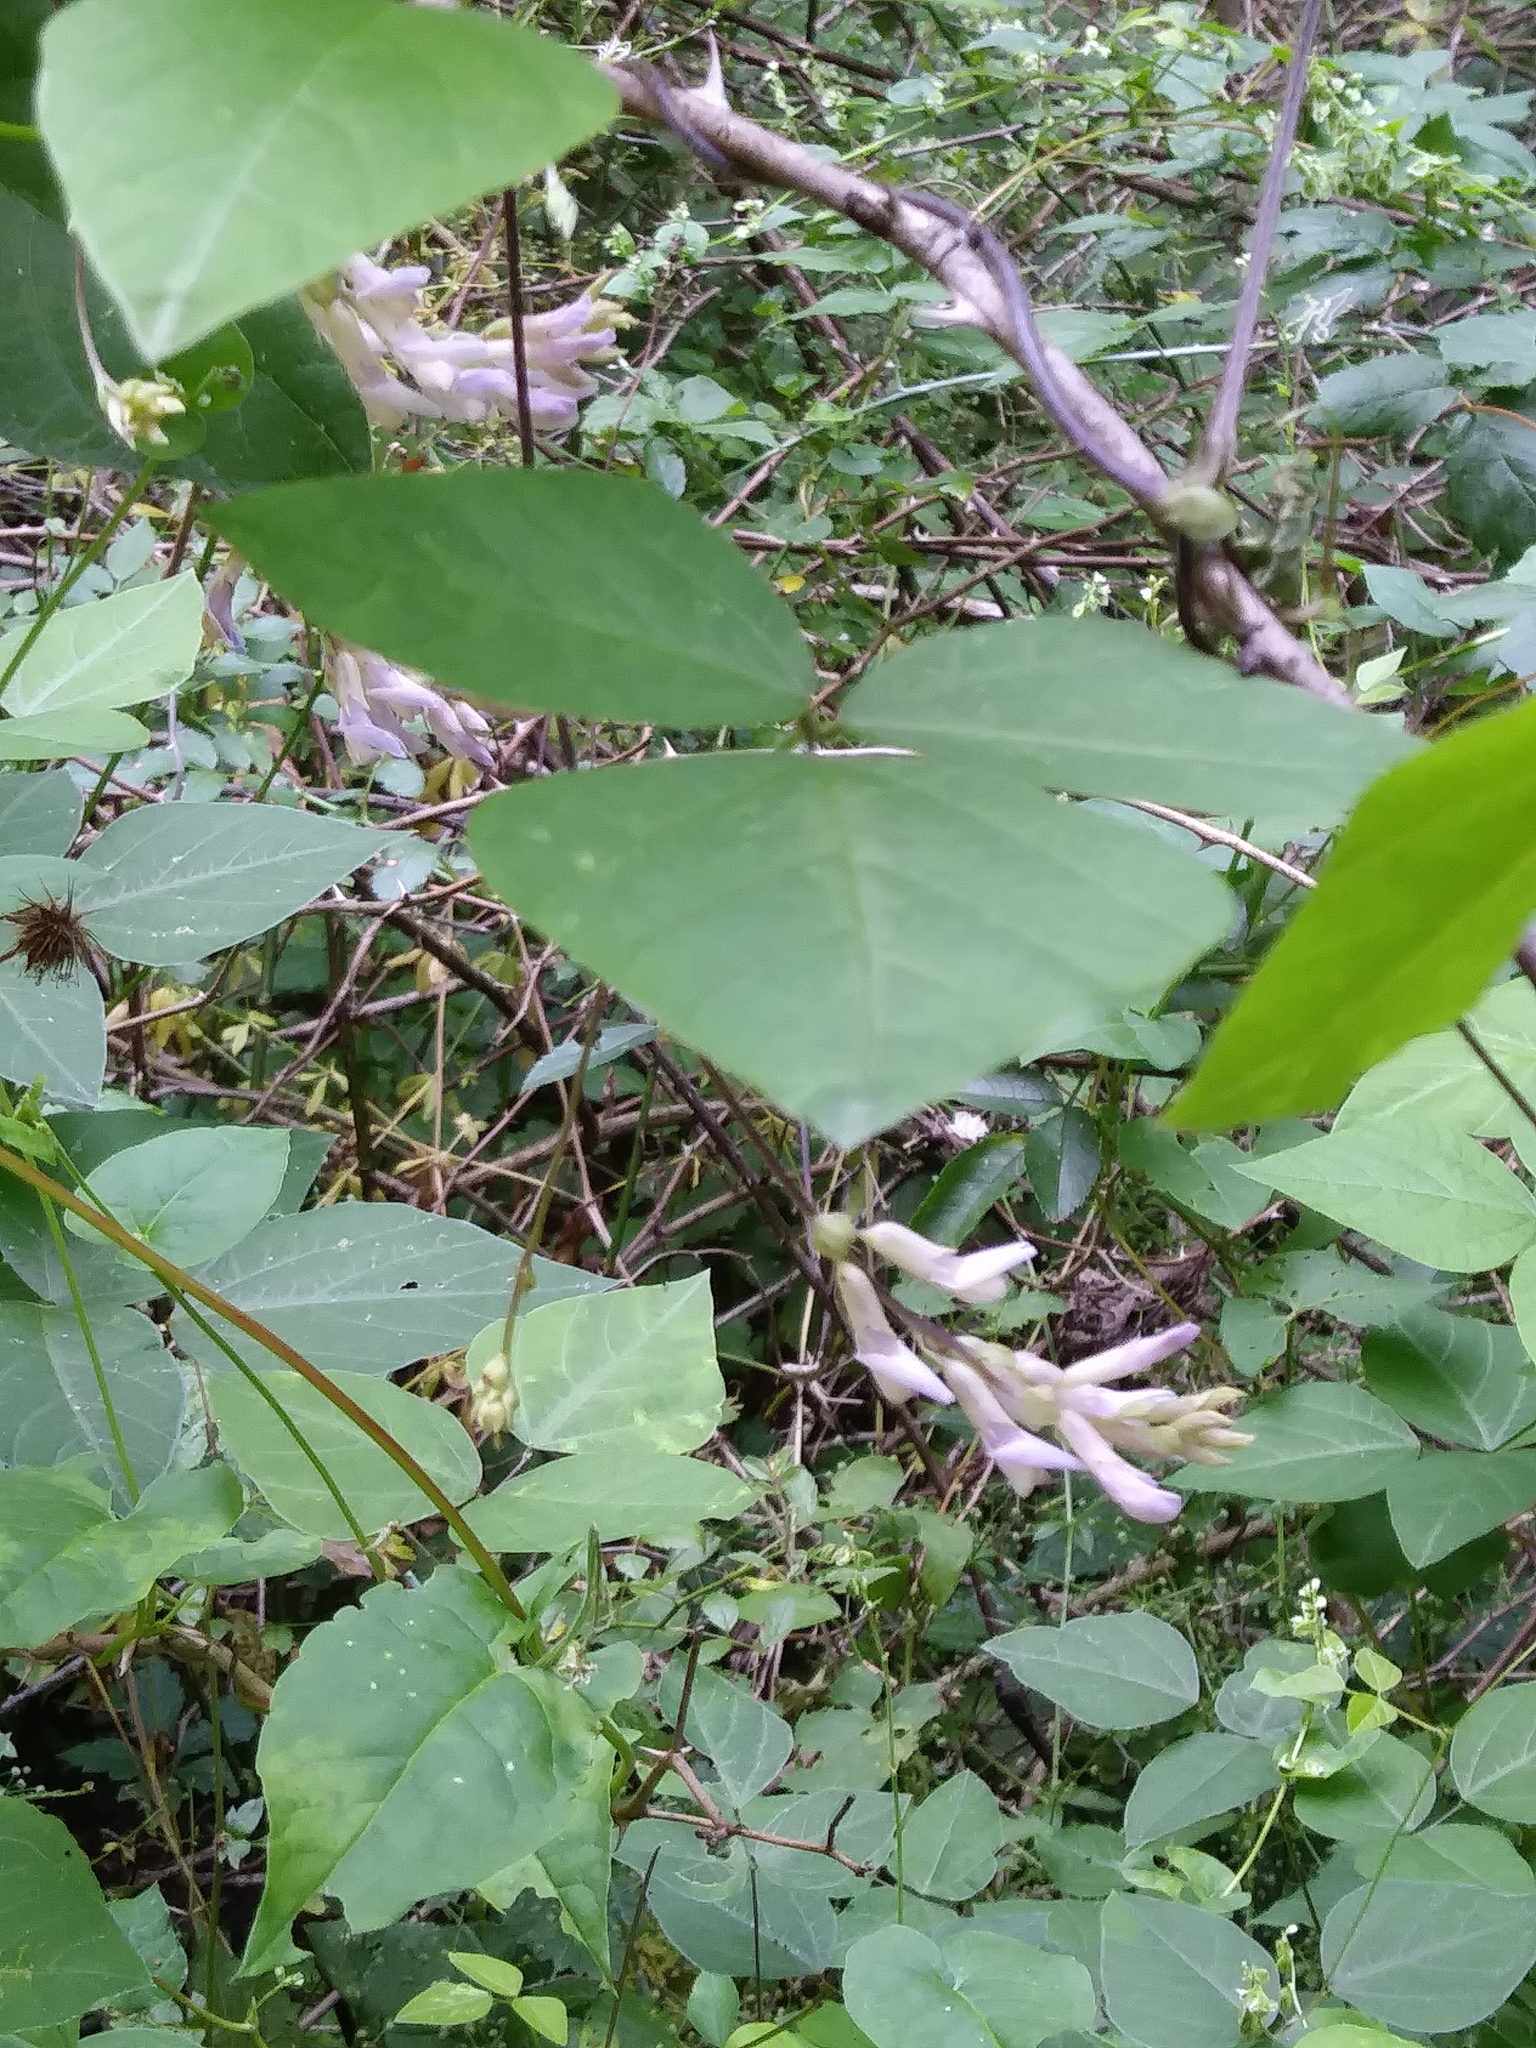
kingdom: Plantae
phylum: Tracheophyta
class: Magnoliopsida
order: Fabales
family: Fabaceae
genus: Amphicarpaea
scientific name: Amphicarpaea bracteata
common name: American hog peanut
